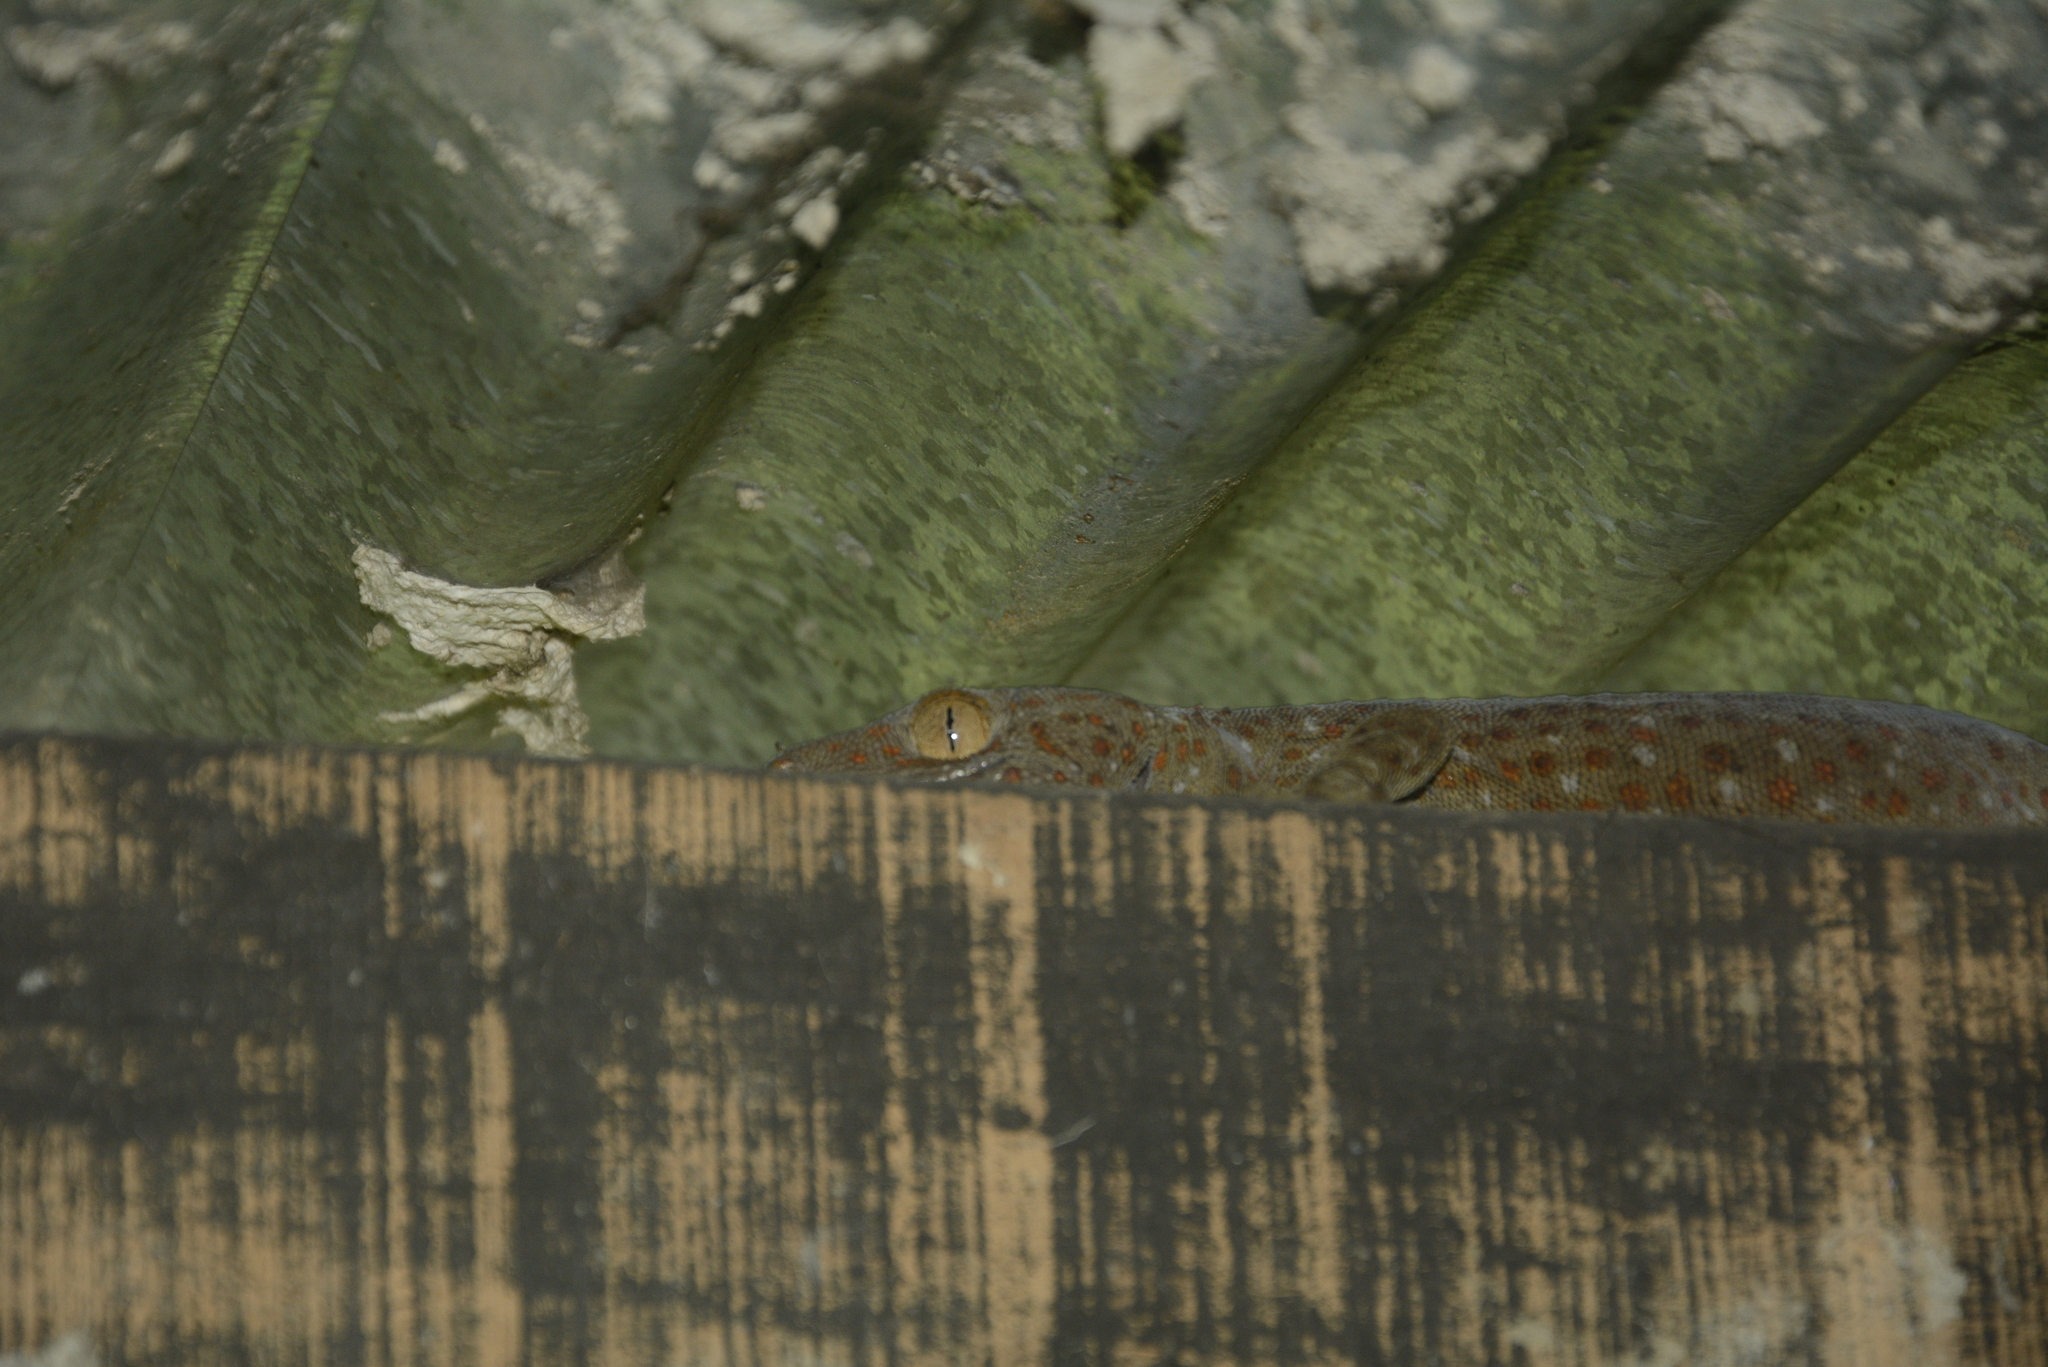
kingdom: Animalia
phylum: Chordata
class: Squamata
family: Gekkonidae
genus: Gekko
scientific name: Gekko gecko
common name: Tokay gecko
